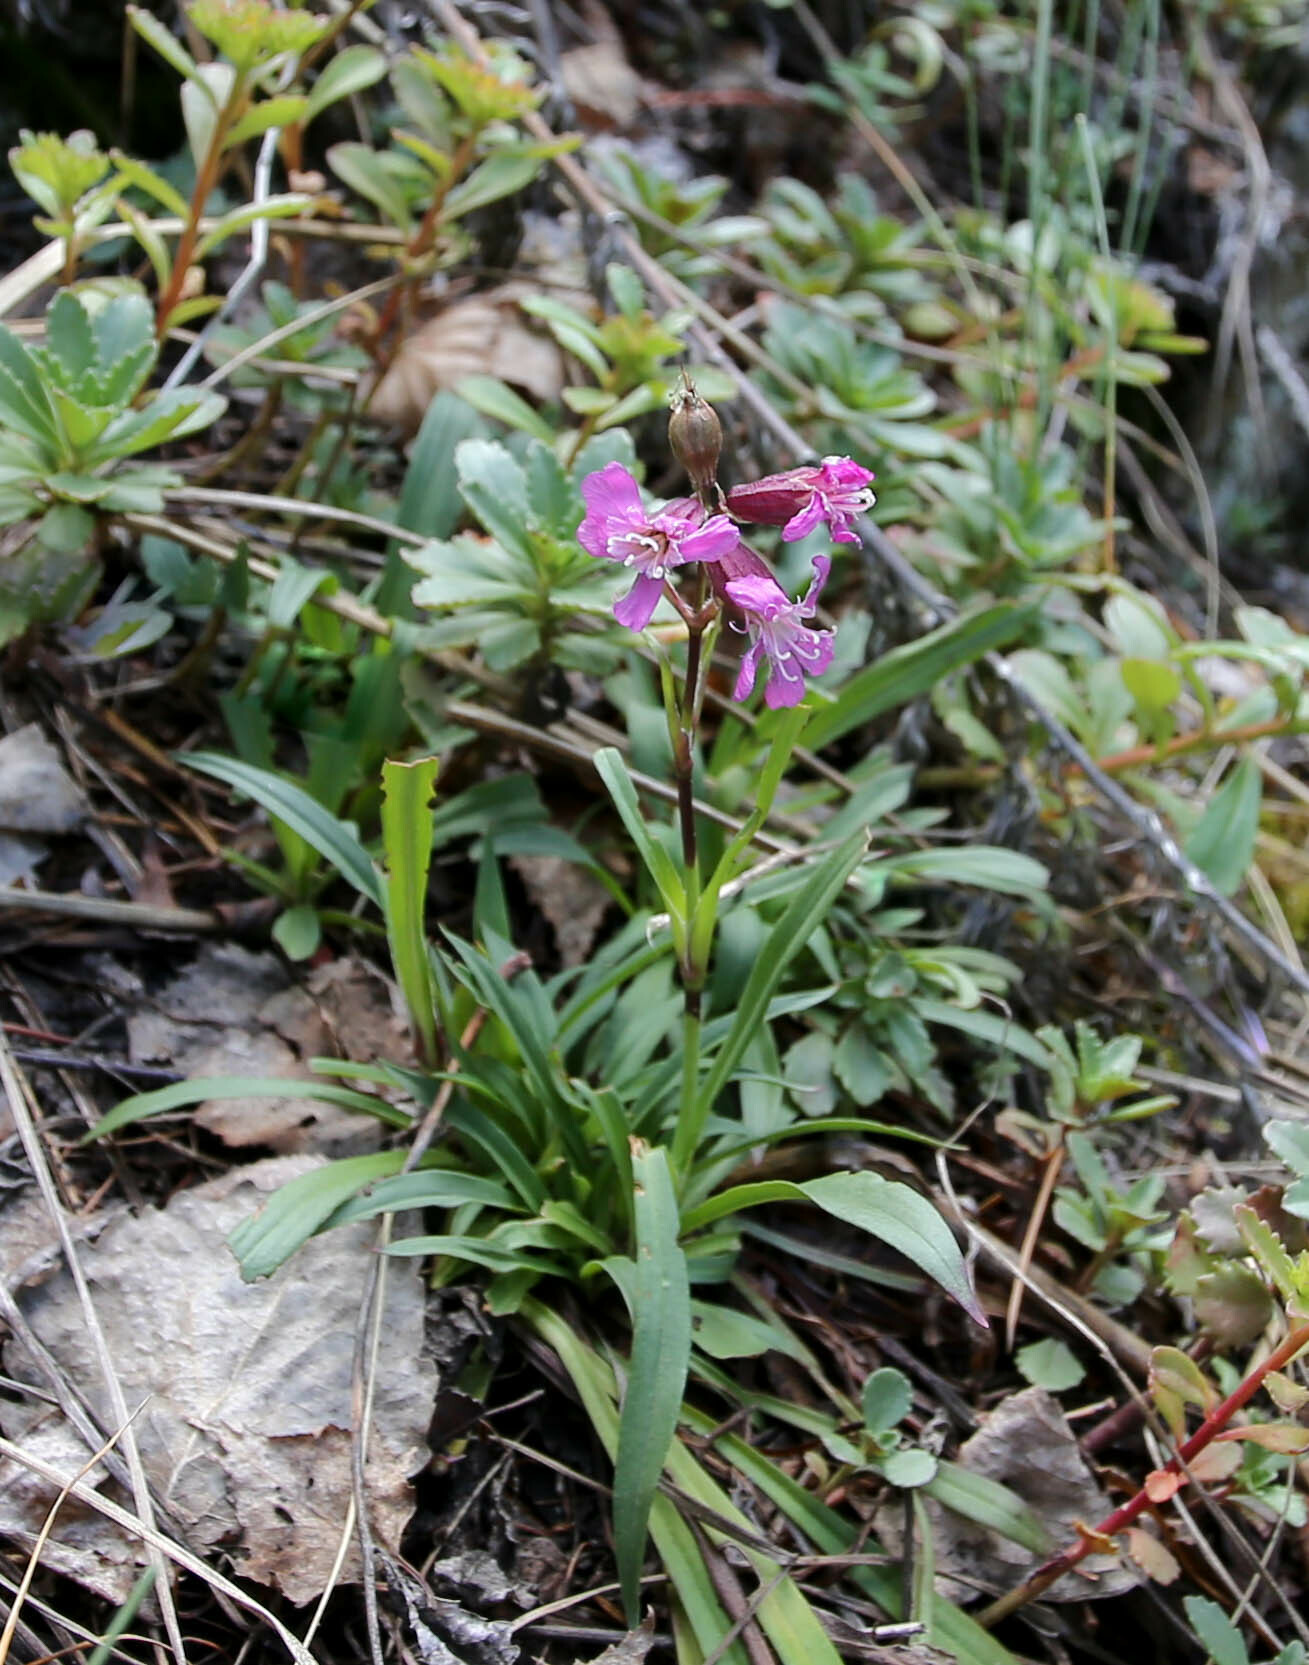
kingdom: Plantae
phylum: Tracheophyta
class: Magnoliopsida
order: Caryophyllales
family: Caryophyllaceae
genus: Viscaria
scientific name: Viscaria vulgaris
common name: Clammy campion
